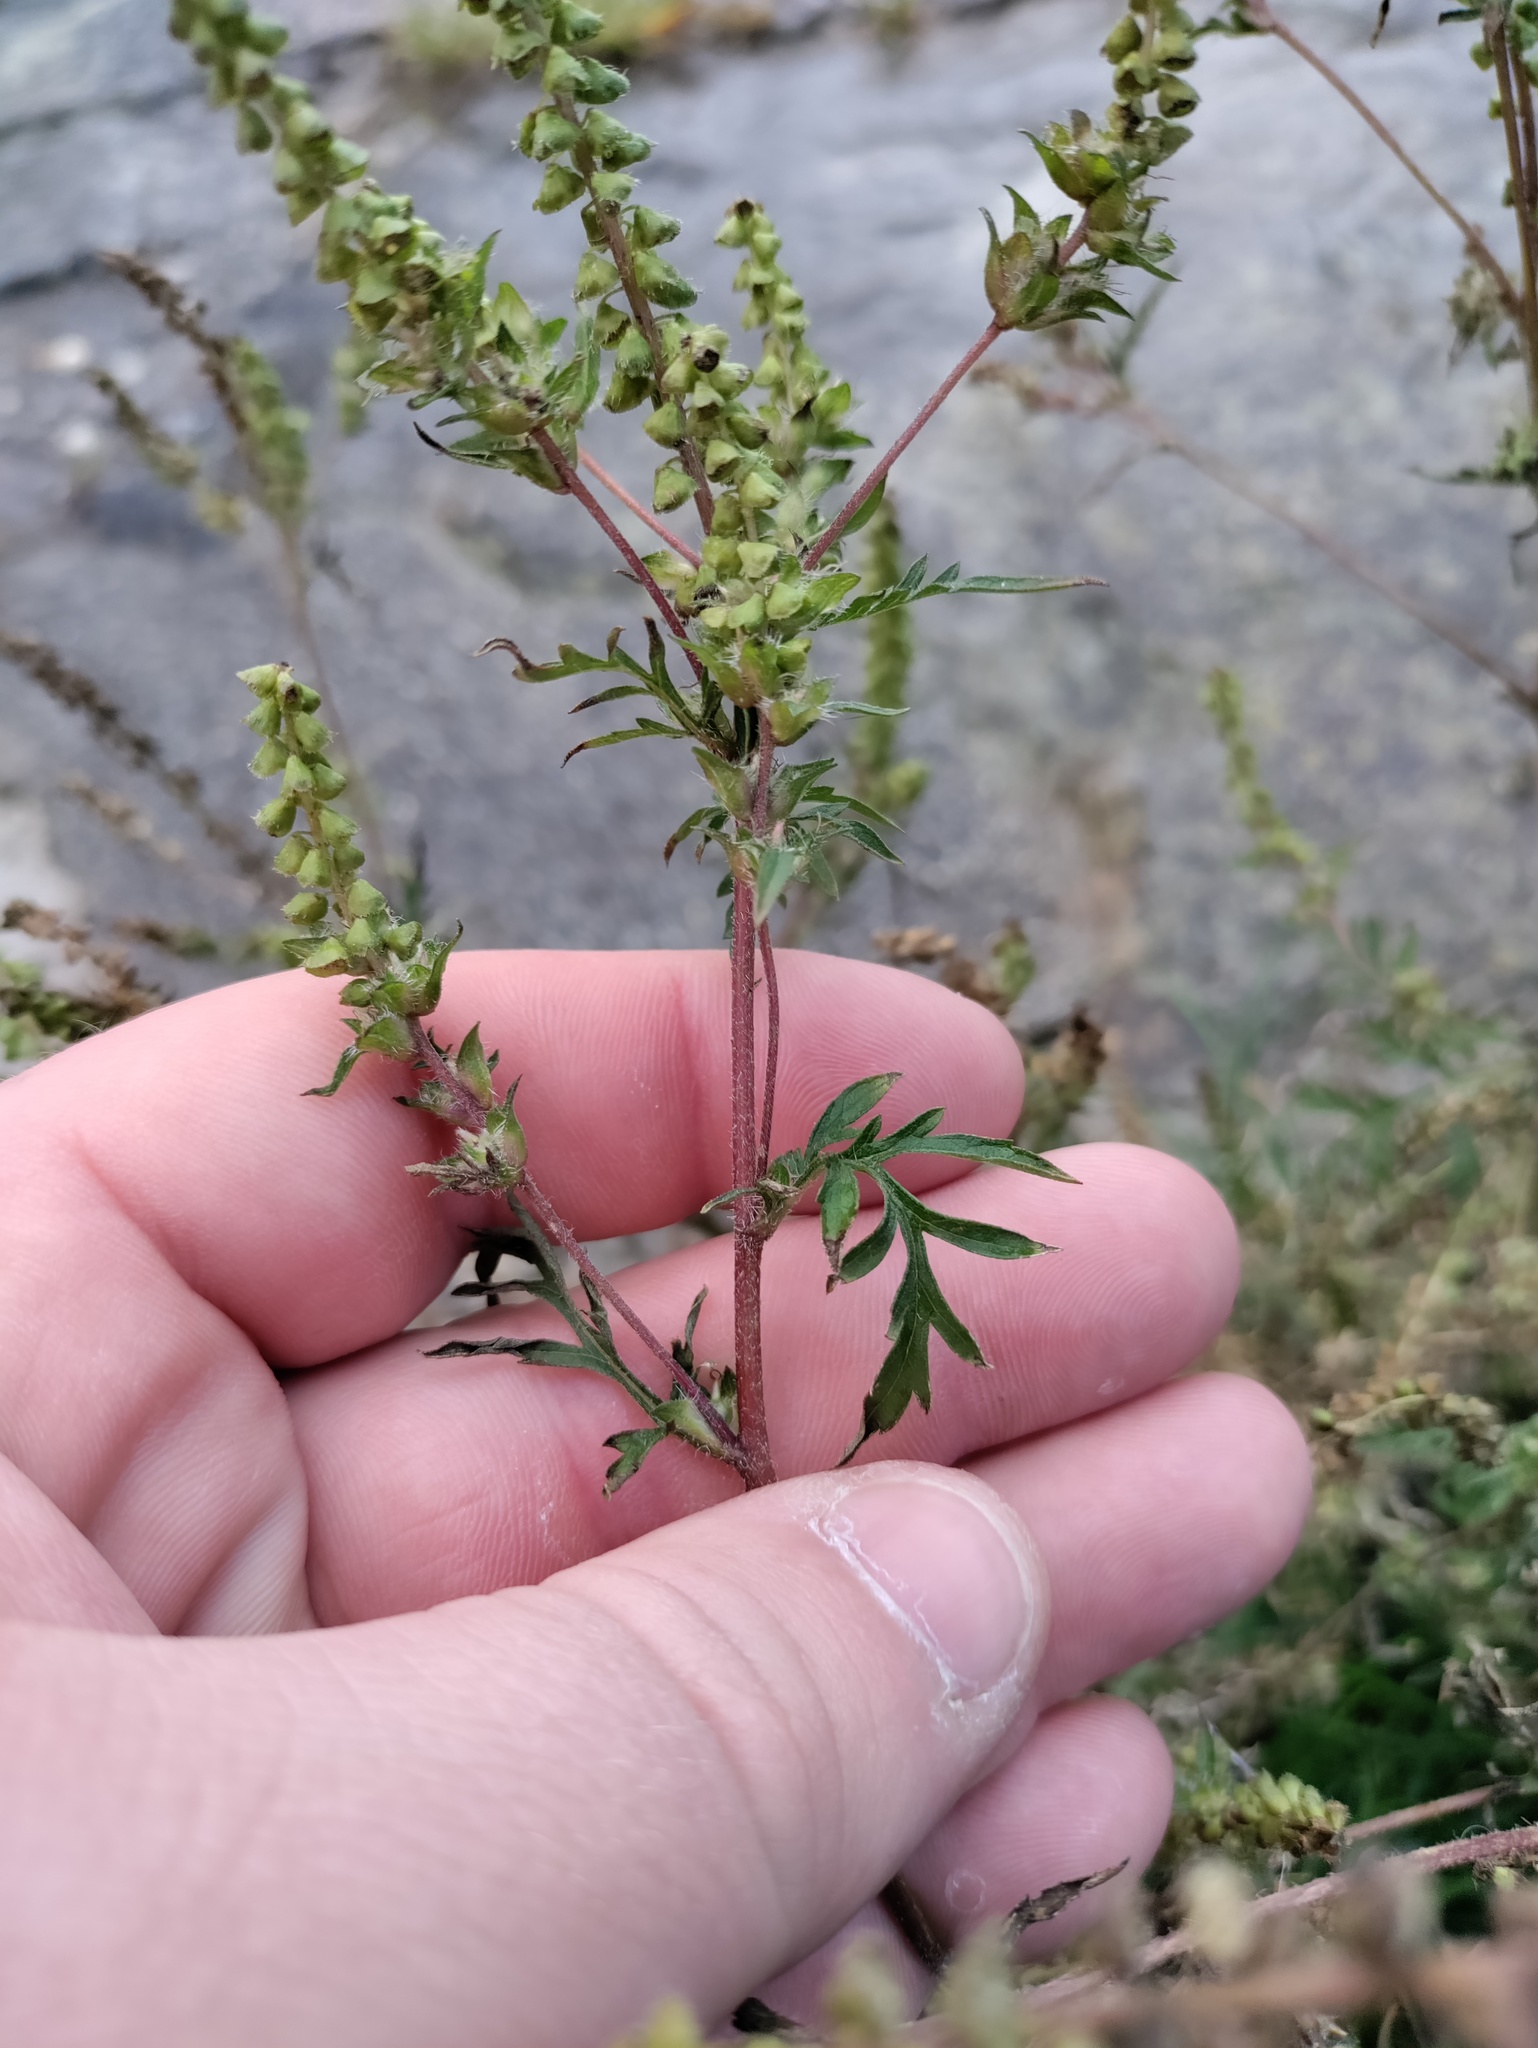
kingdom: Plantae
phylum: Tracheophyta
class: Magnoliopsida
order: Asterales
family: Asteraceae
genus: Ambrosia
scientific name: Ambrosia artemisiifolia
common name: Annual ragweed
